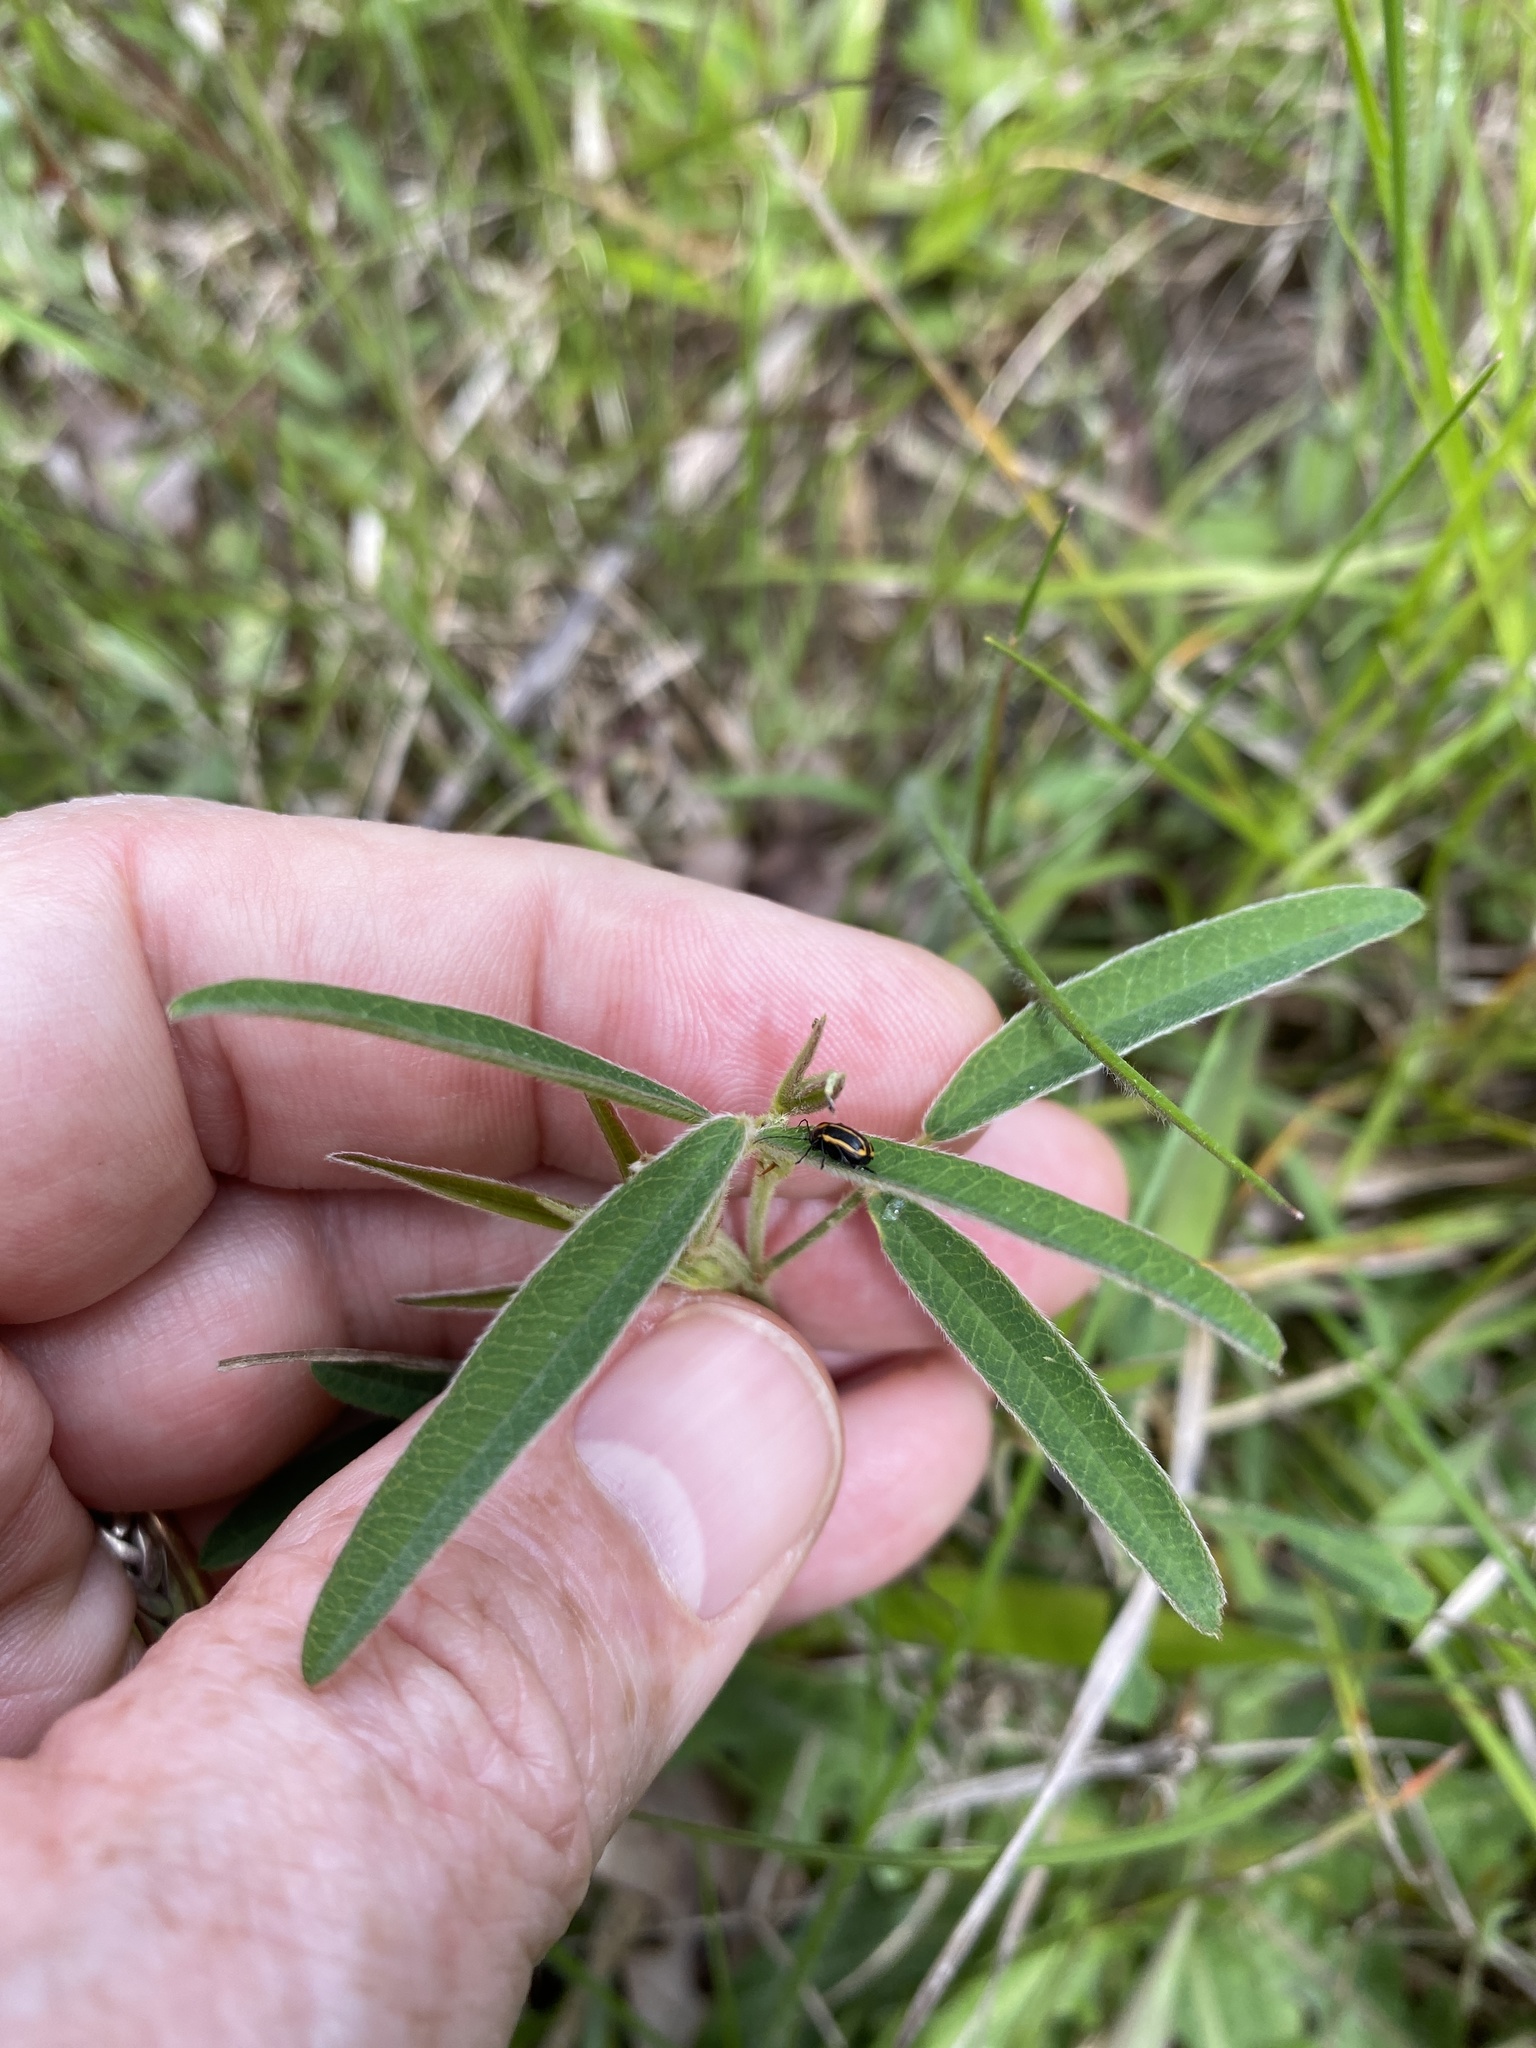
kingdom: Plantae
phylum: Tracheophyta
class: Magnoliopsida
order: Fabales
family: Fabaceae
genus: Lespedeza
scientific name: Lespedeza virginica
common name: Slender bush-clover
